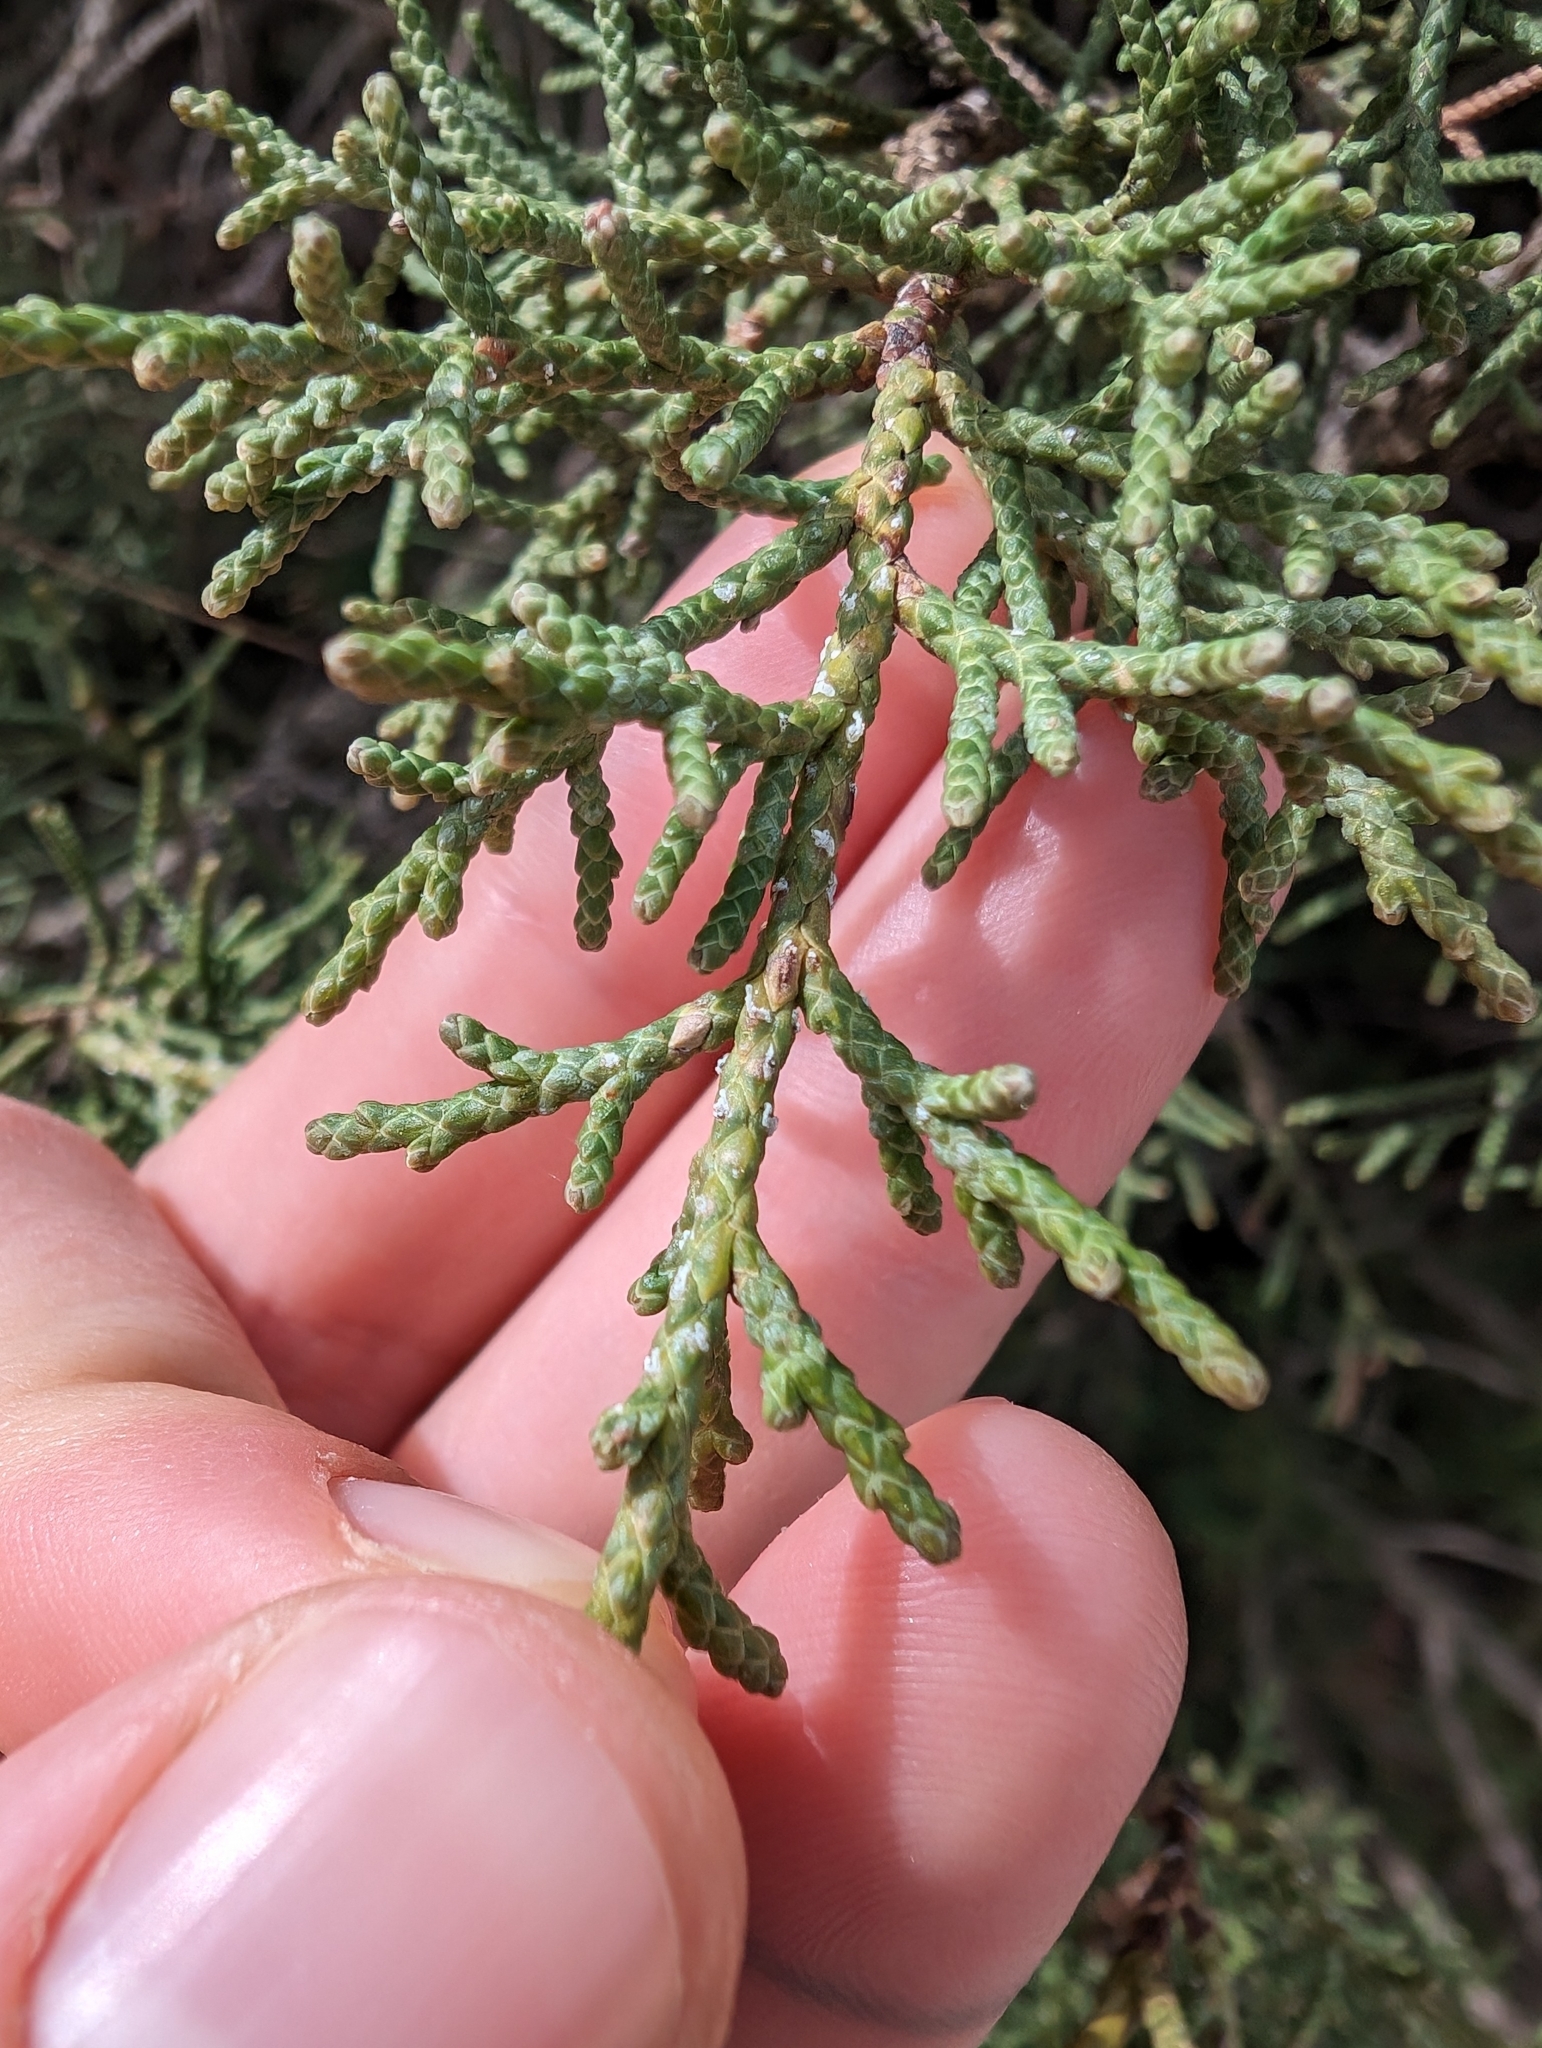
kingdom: Plantae
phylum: Tracheophyta
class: Pinopsida
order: Pinales
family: Cupressaceae
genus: Juniperus
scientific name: Juniperus phoenicea
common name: Phoenician juniper
